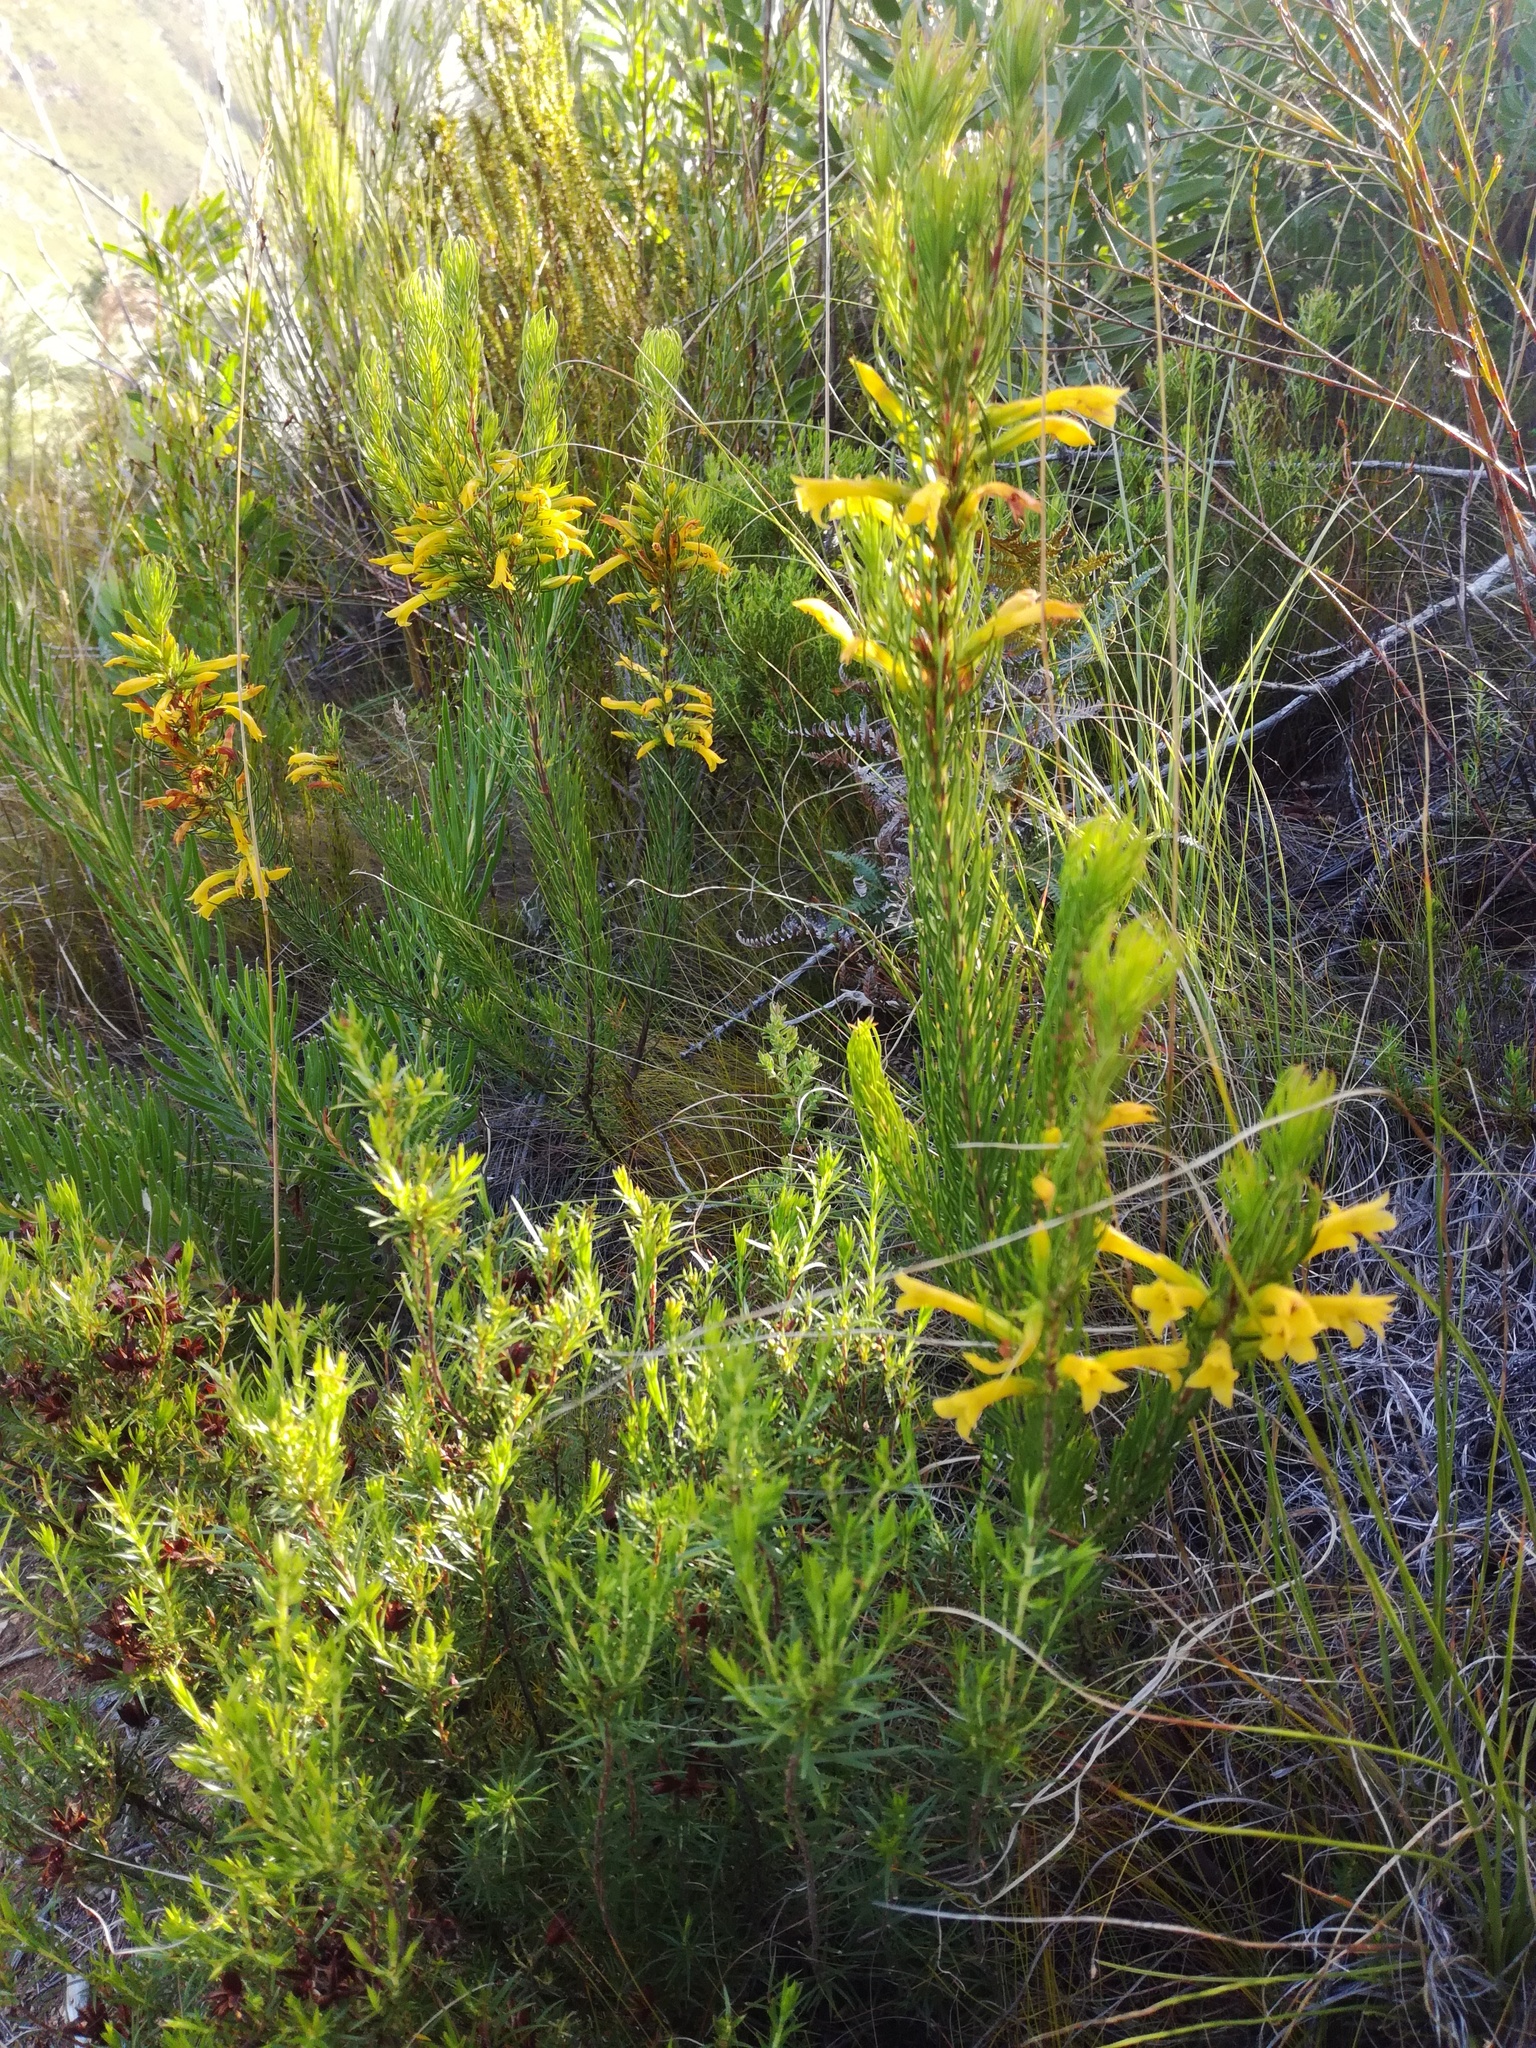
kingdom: Plantae
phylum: Tracheophyta
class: Magnoliopsida
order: Ericales
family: Ericaceae
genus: Erica
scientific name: Erica grandiflora
